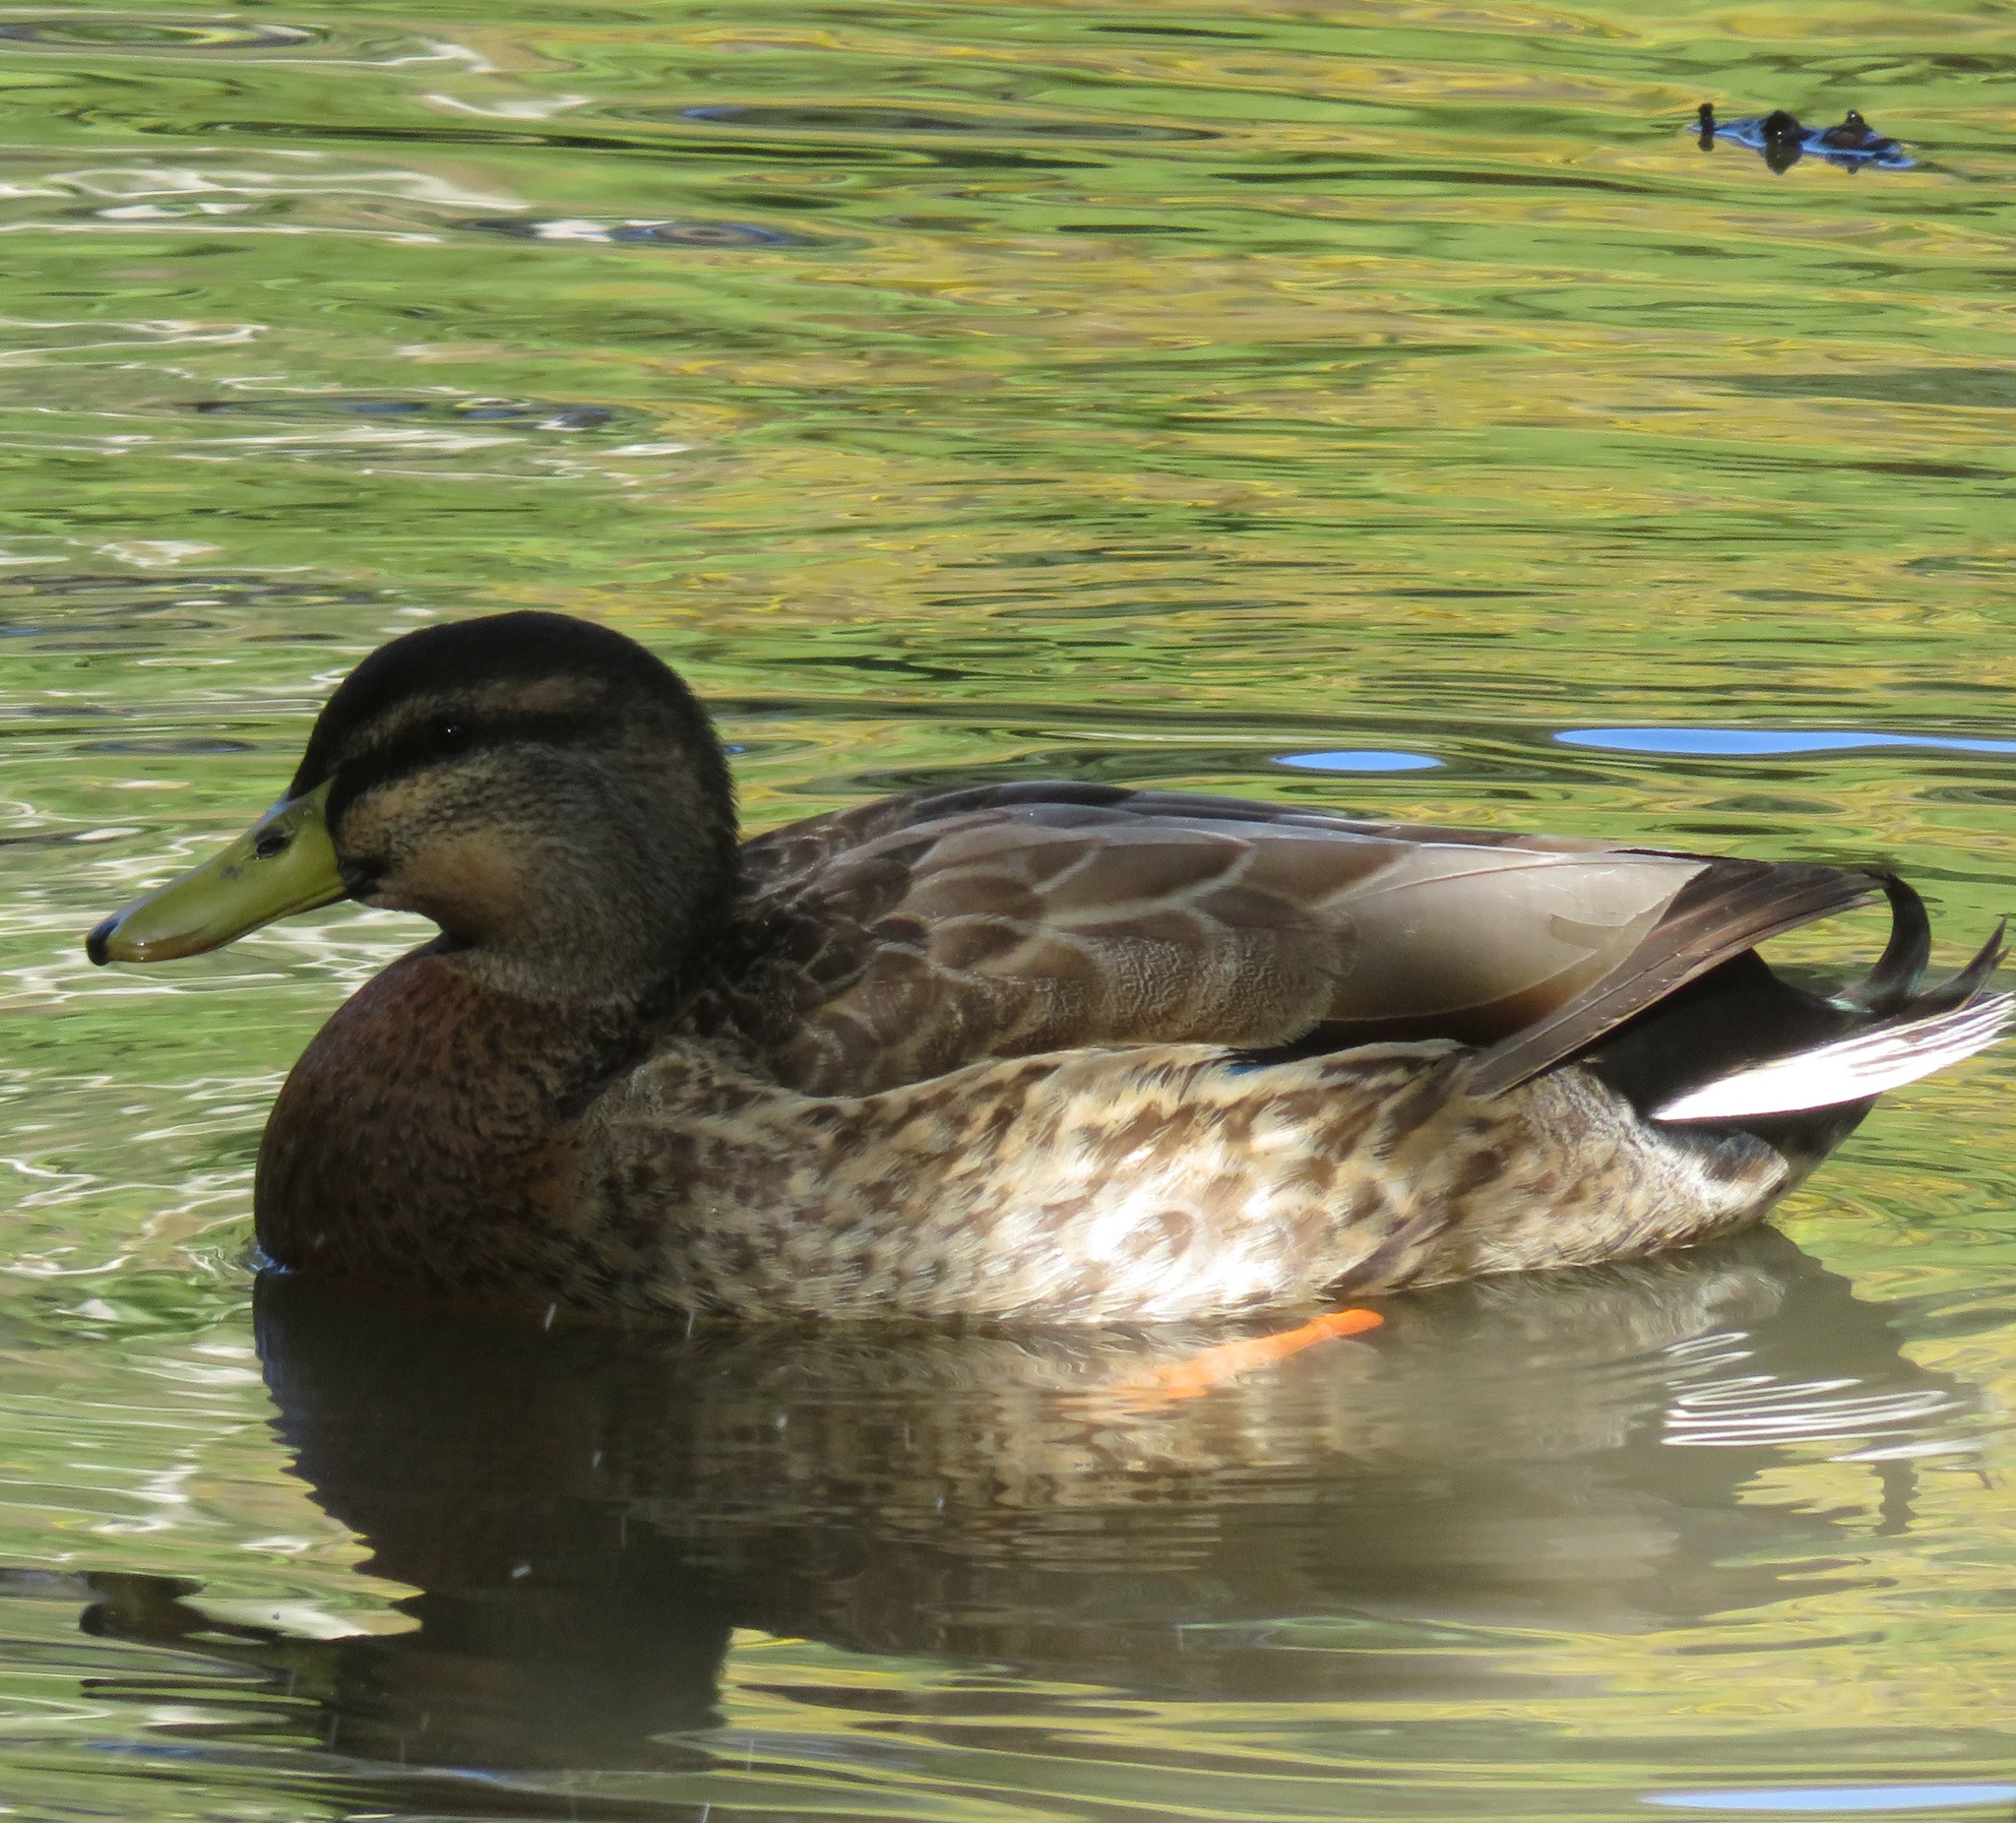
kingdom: Animalia
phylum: Chordata
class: Aves
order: Anseriformes
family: Anatidae
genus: Anas
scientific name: Anas
